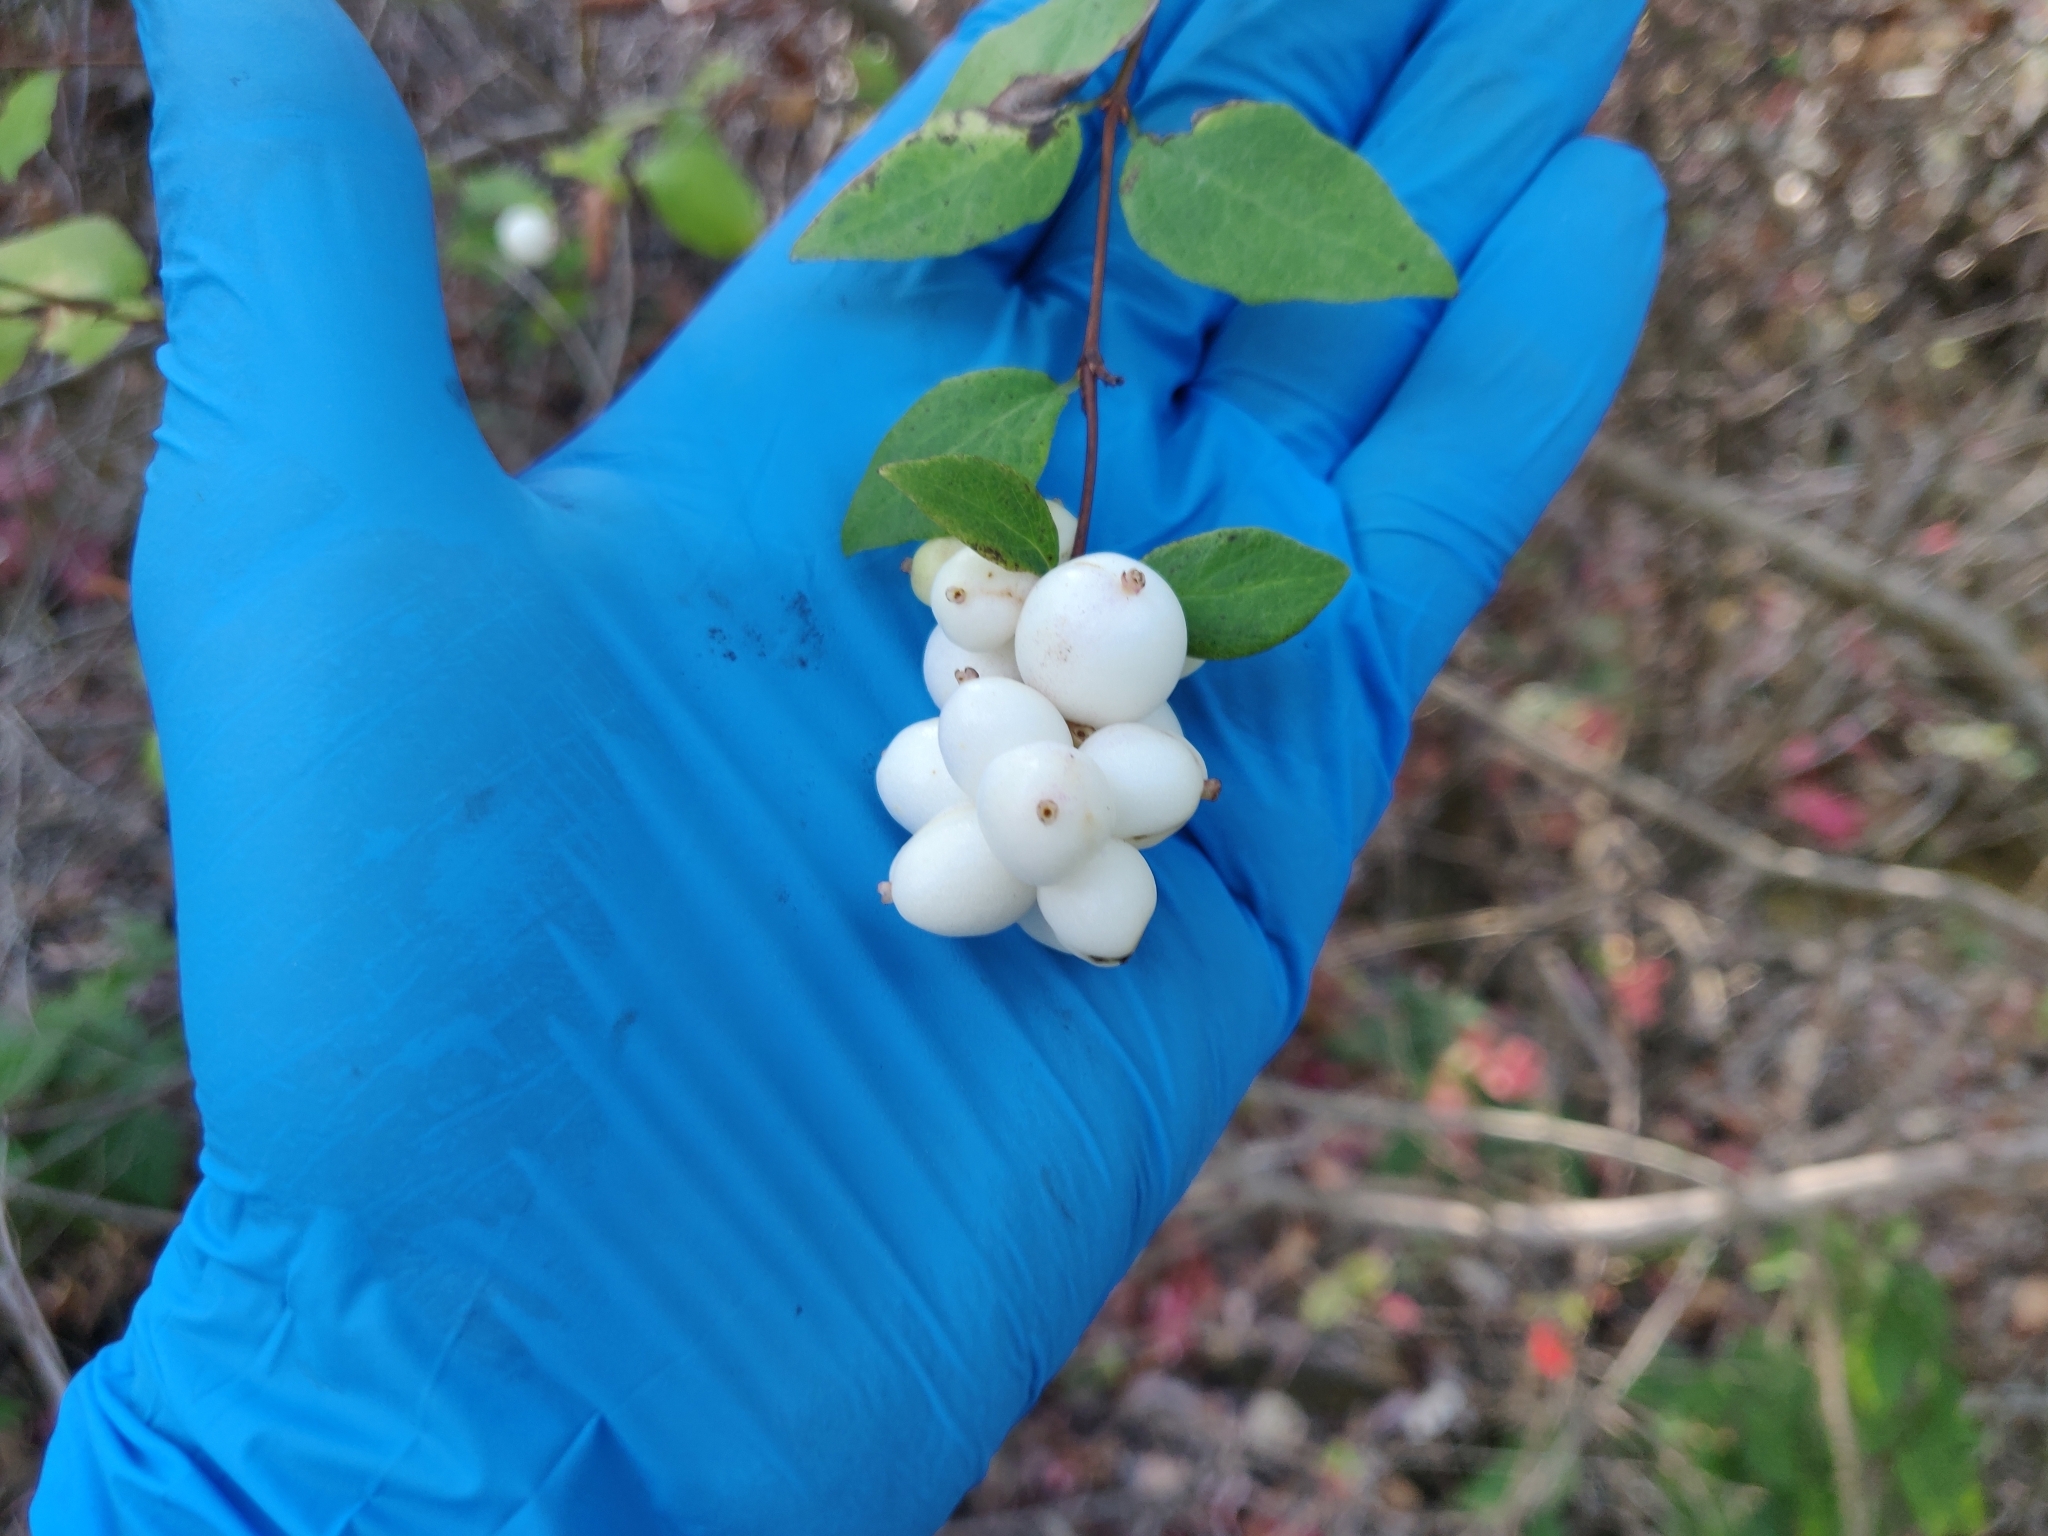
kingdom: Plantae
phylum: Tracheophyta
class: Magnoliopsida
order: Dipsacales
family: Caprifoliaceae
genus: Symphoricarpos
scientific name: Symphoricarpos albus
